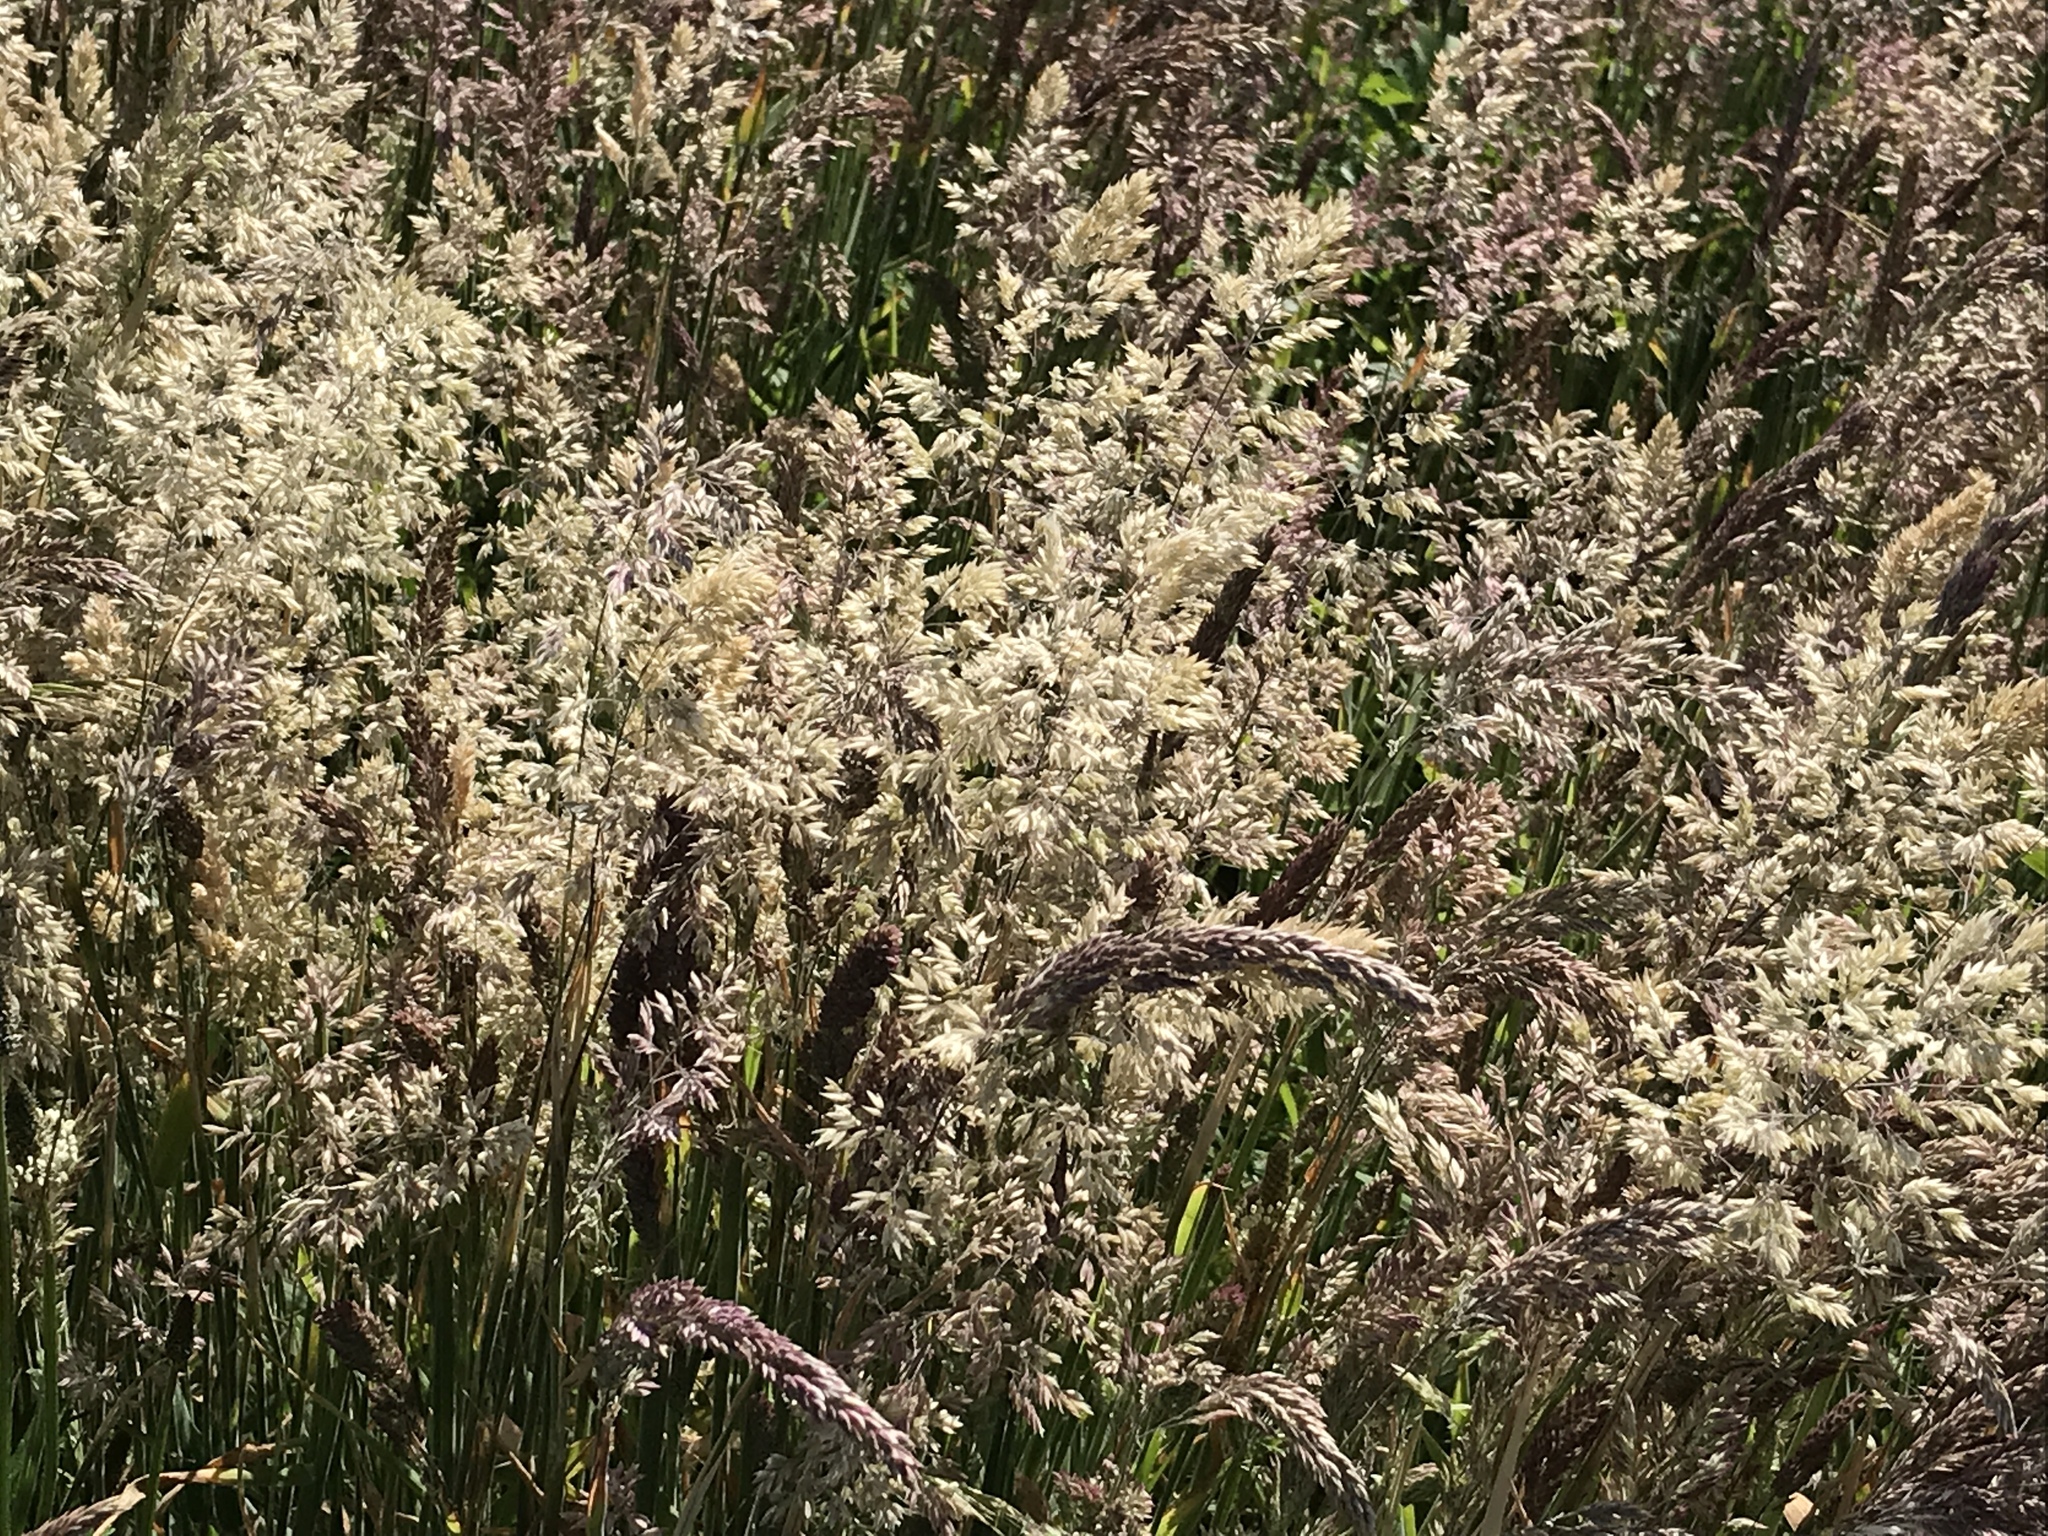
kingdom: Plantae
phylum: Tracheophyta
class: Liliopsida
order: Poales
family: Poaceae
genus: Holcus
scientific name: Holcus lanatus
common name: Yorkshire-fog
